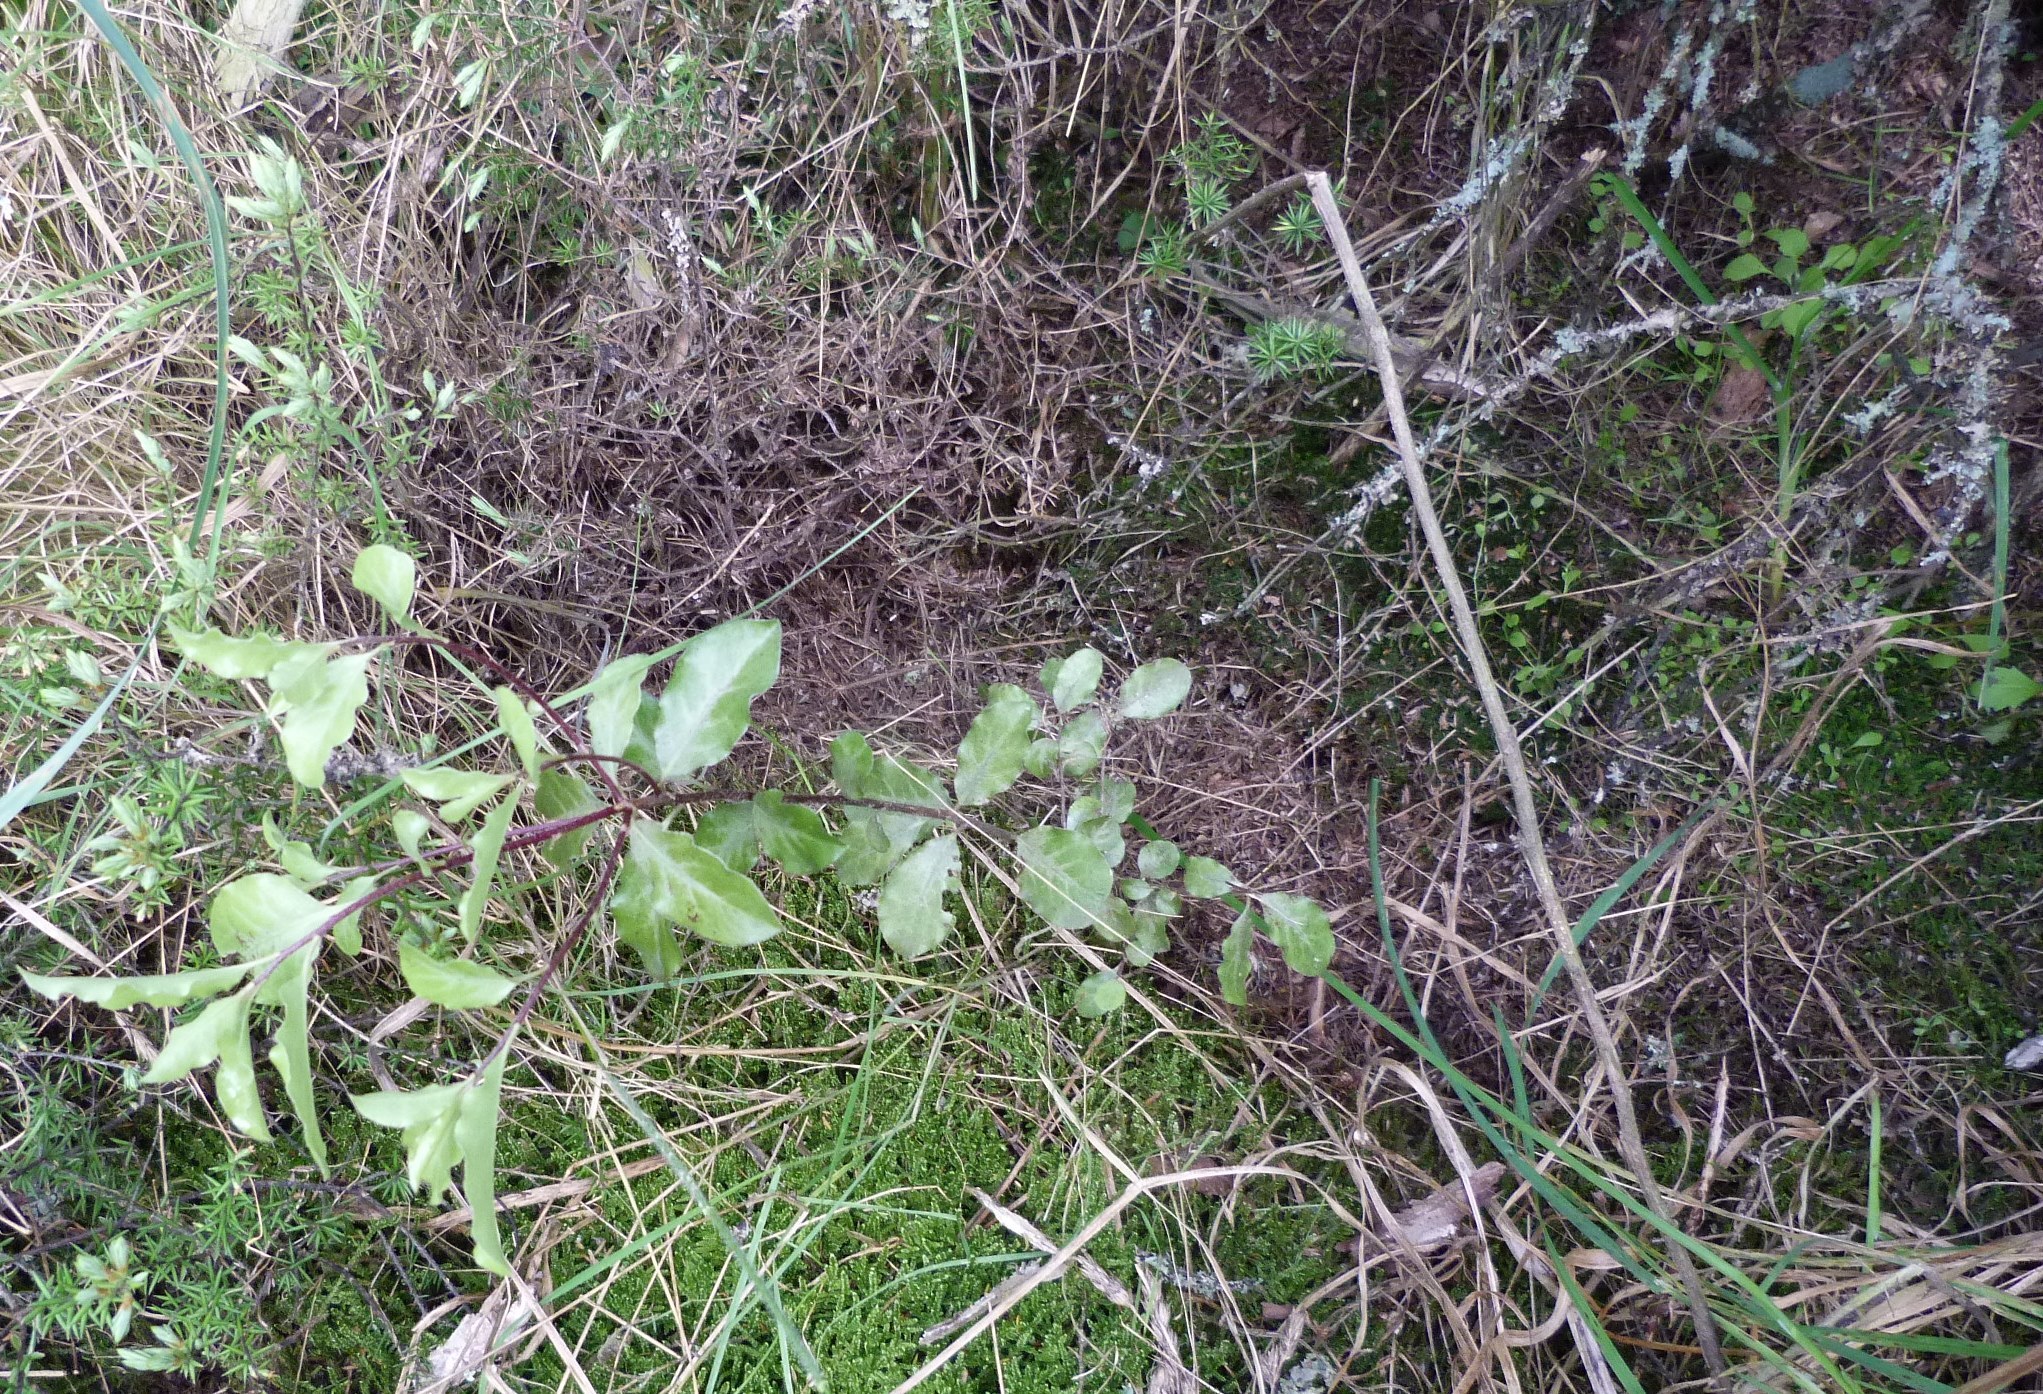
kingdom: Plantae
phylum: Tracheophyta
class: Magnoliopsida
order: Apiales
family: Pittosporaceae
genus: Pittosporum
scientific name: Pittosporum tenuifolium
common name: Kohuhu
